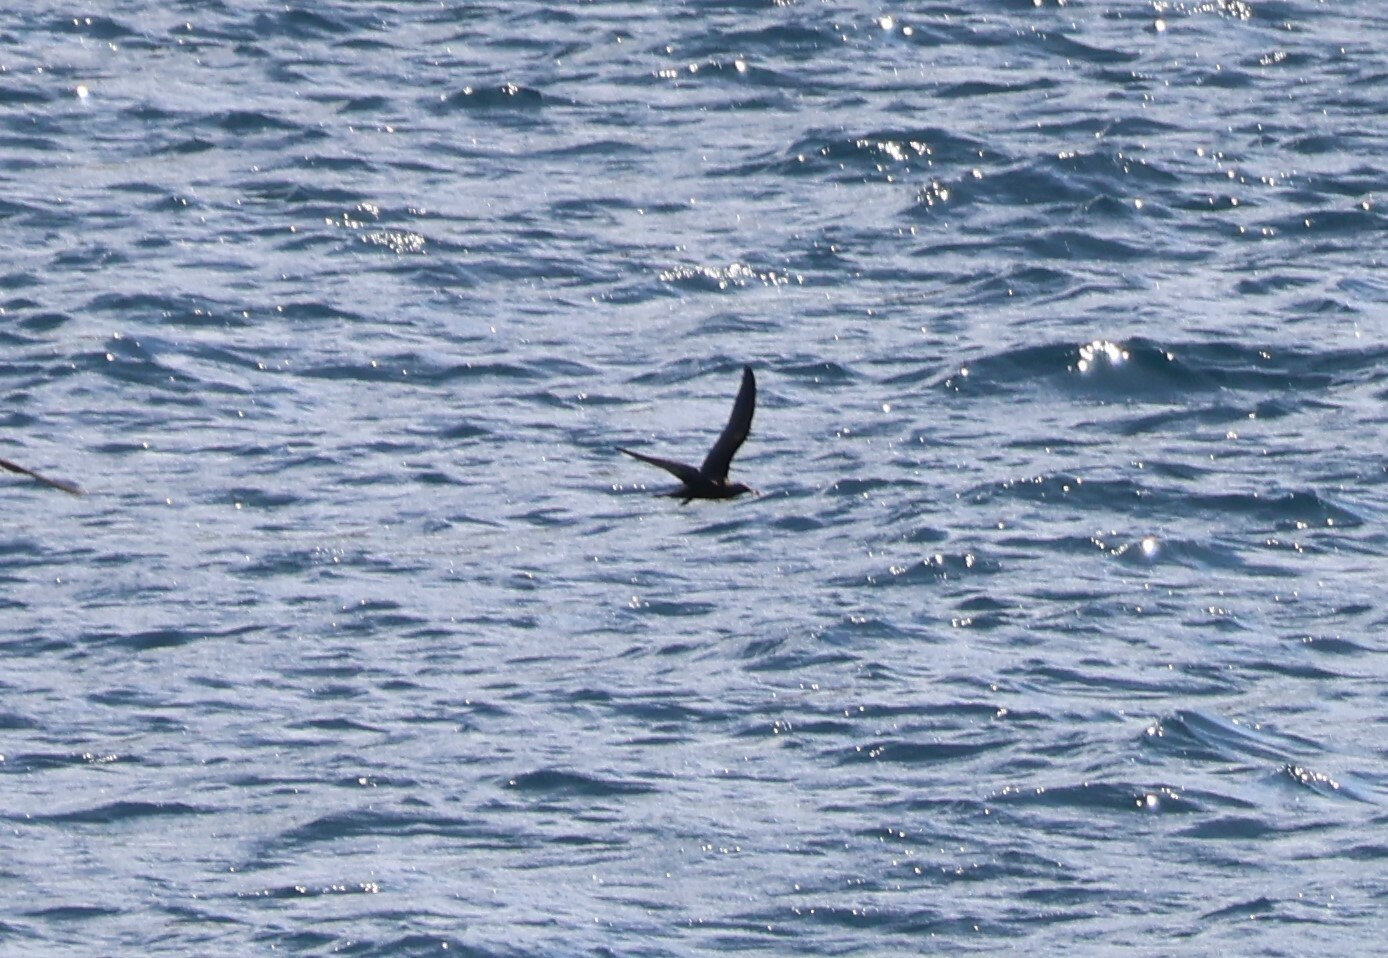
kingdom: Animalia
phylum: Chordata
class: Aves
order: Charadriiformes
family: Laridae
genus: Anous
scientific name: Anous stolidus
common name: Brown noddy
